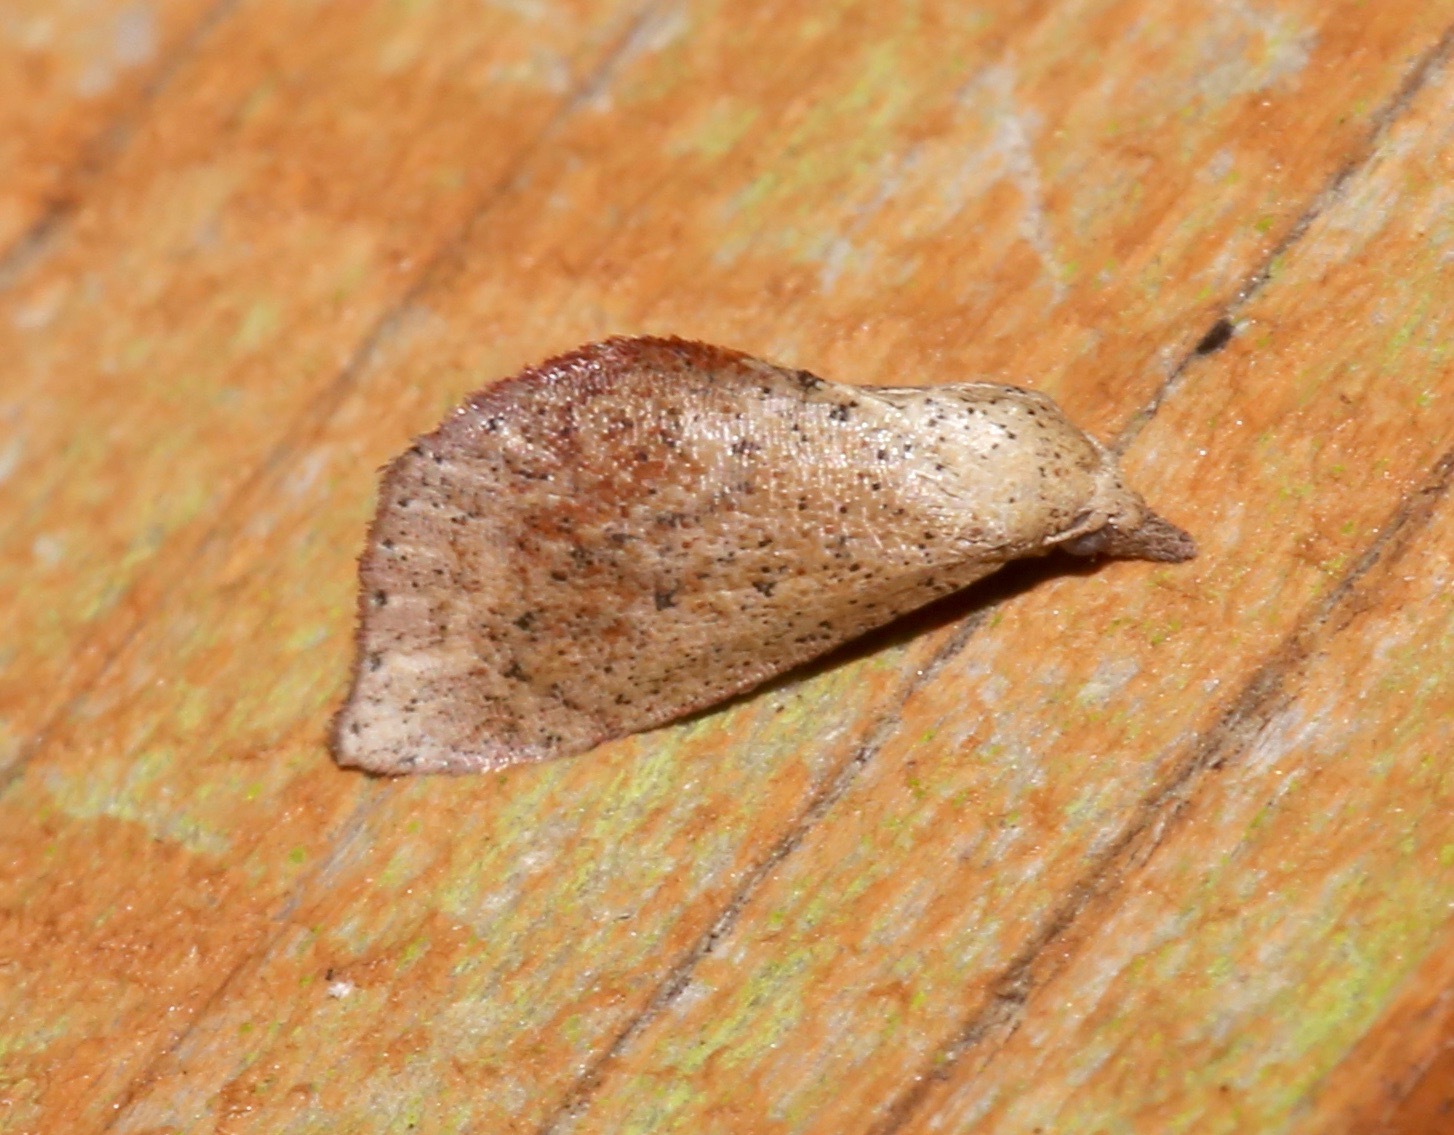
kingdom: Animalia
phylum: Arthropoda
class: Insecta
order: Lepidoptera
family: Noctuidae
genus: Proroblemma
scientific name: Proroblemma testa
